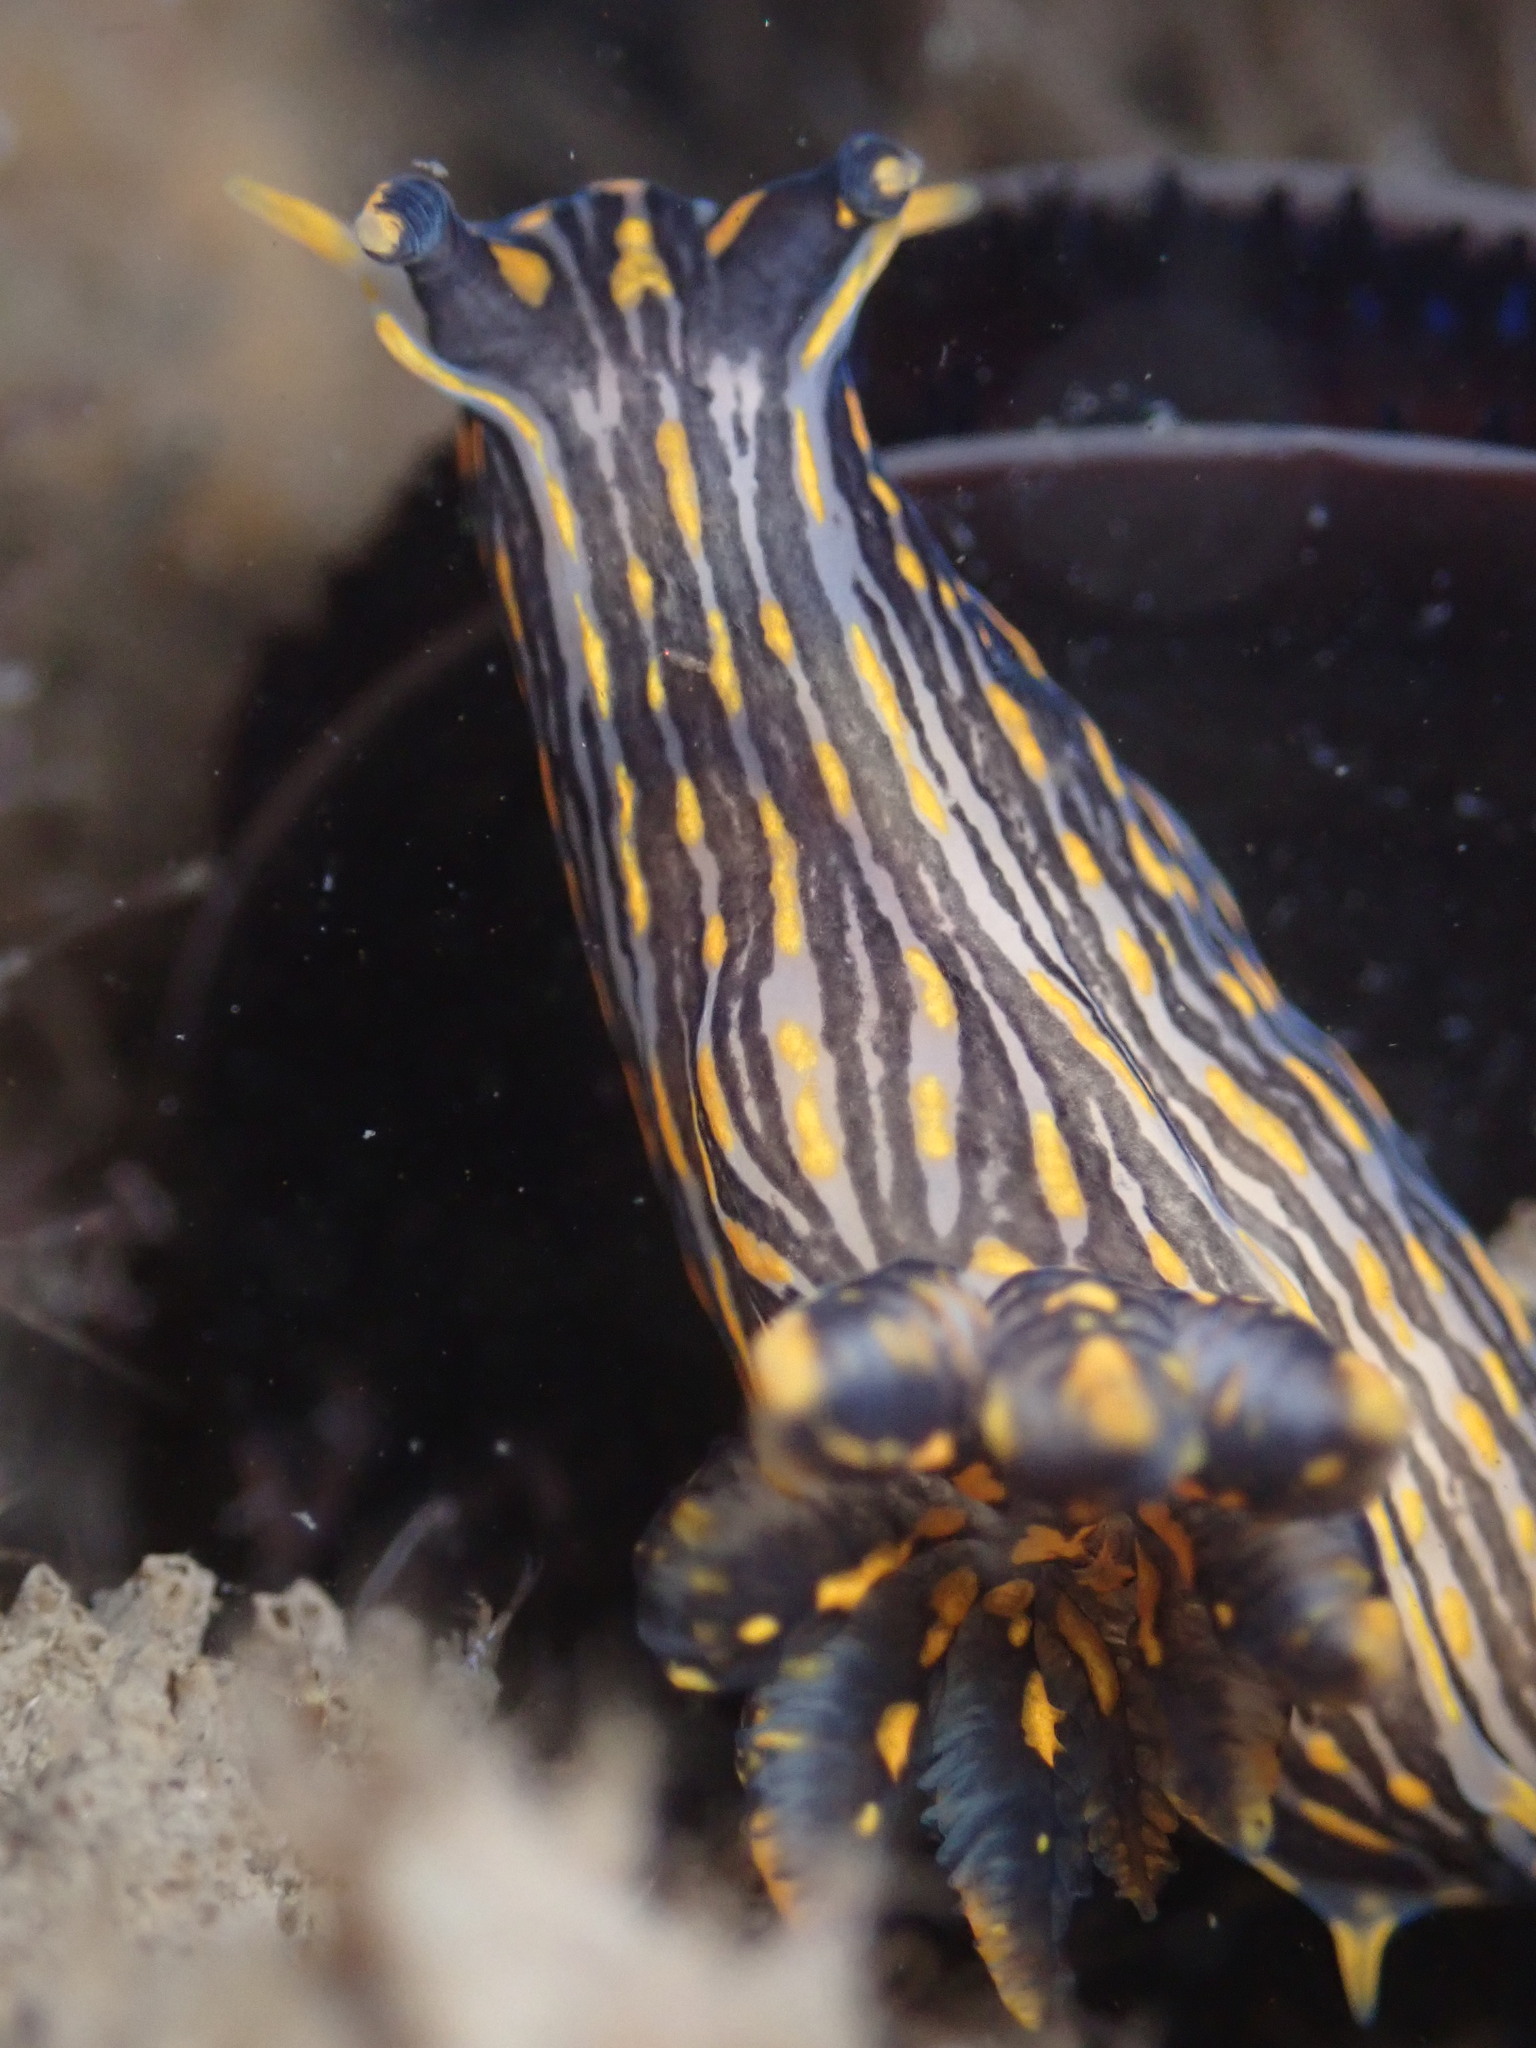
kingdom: Animalia
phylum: Mollusca
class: Gastropoda
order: Nudibranchia
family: Polyceridae
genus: Polycera
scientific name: Polycera atra
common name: Orange-spike polycera
